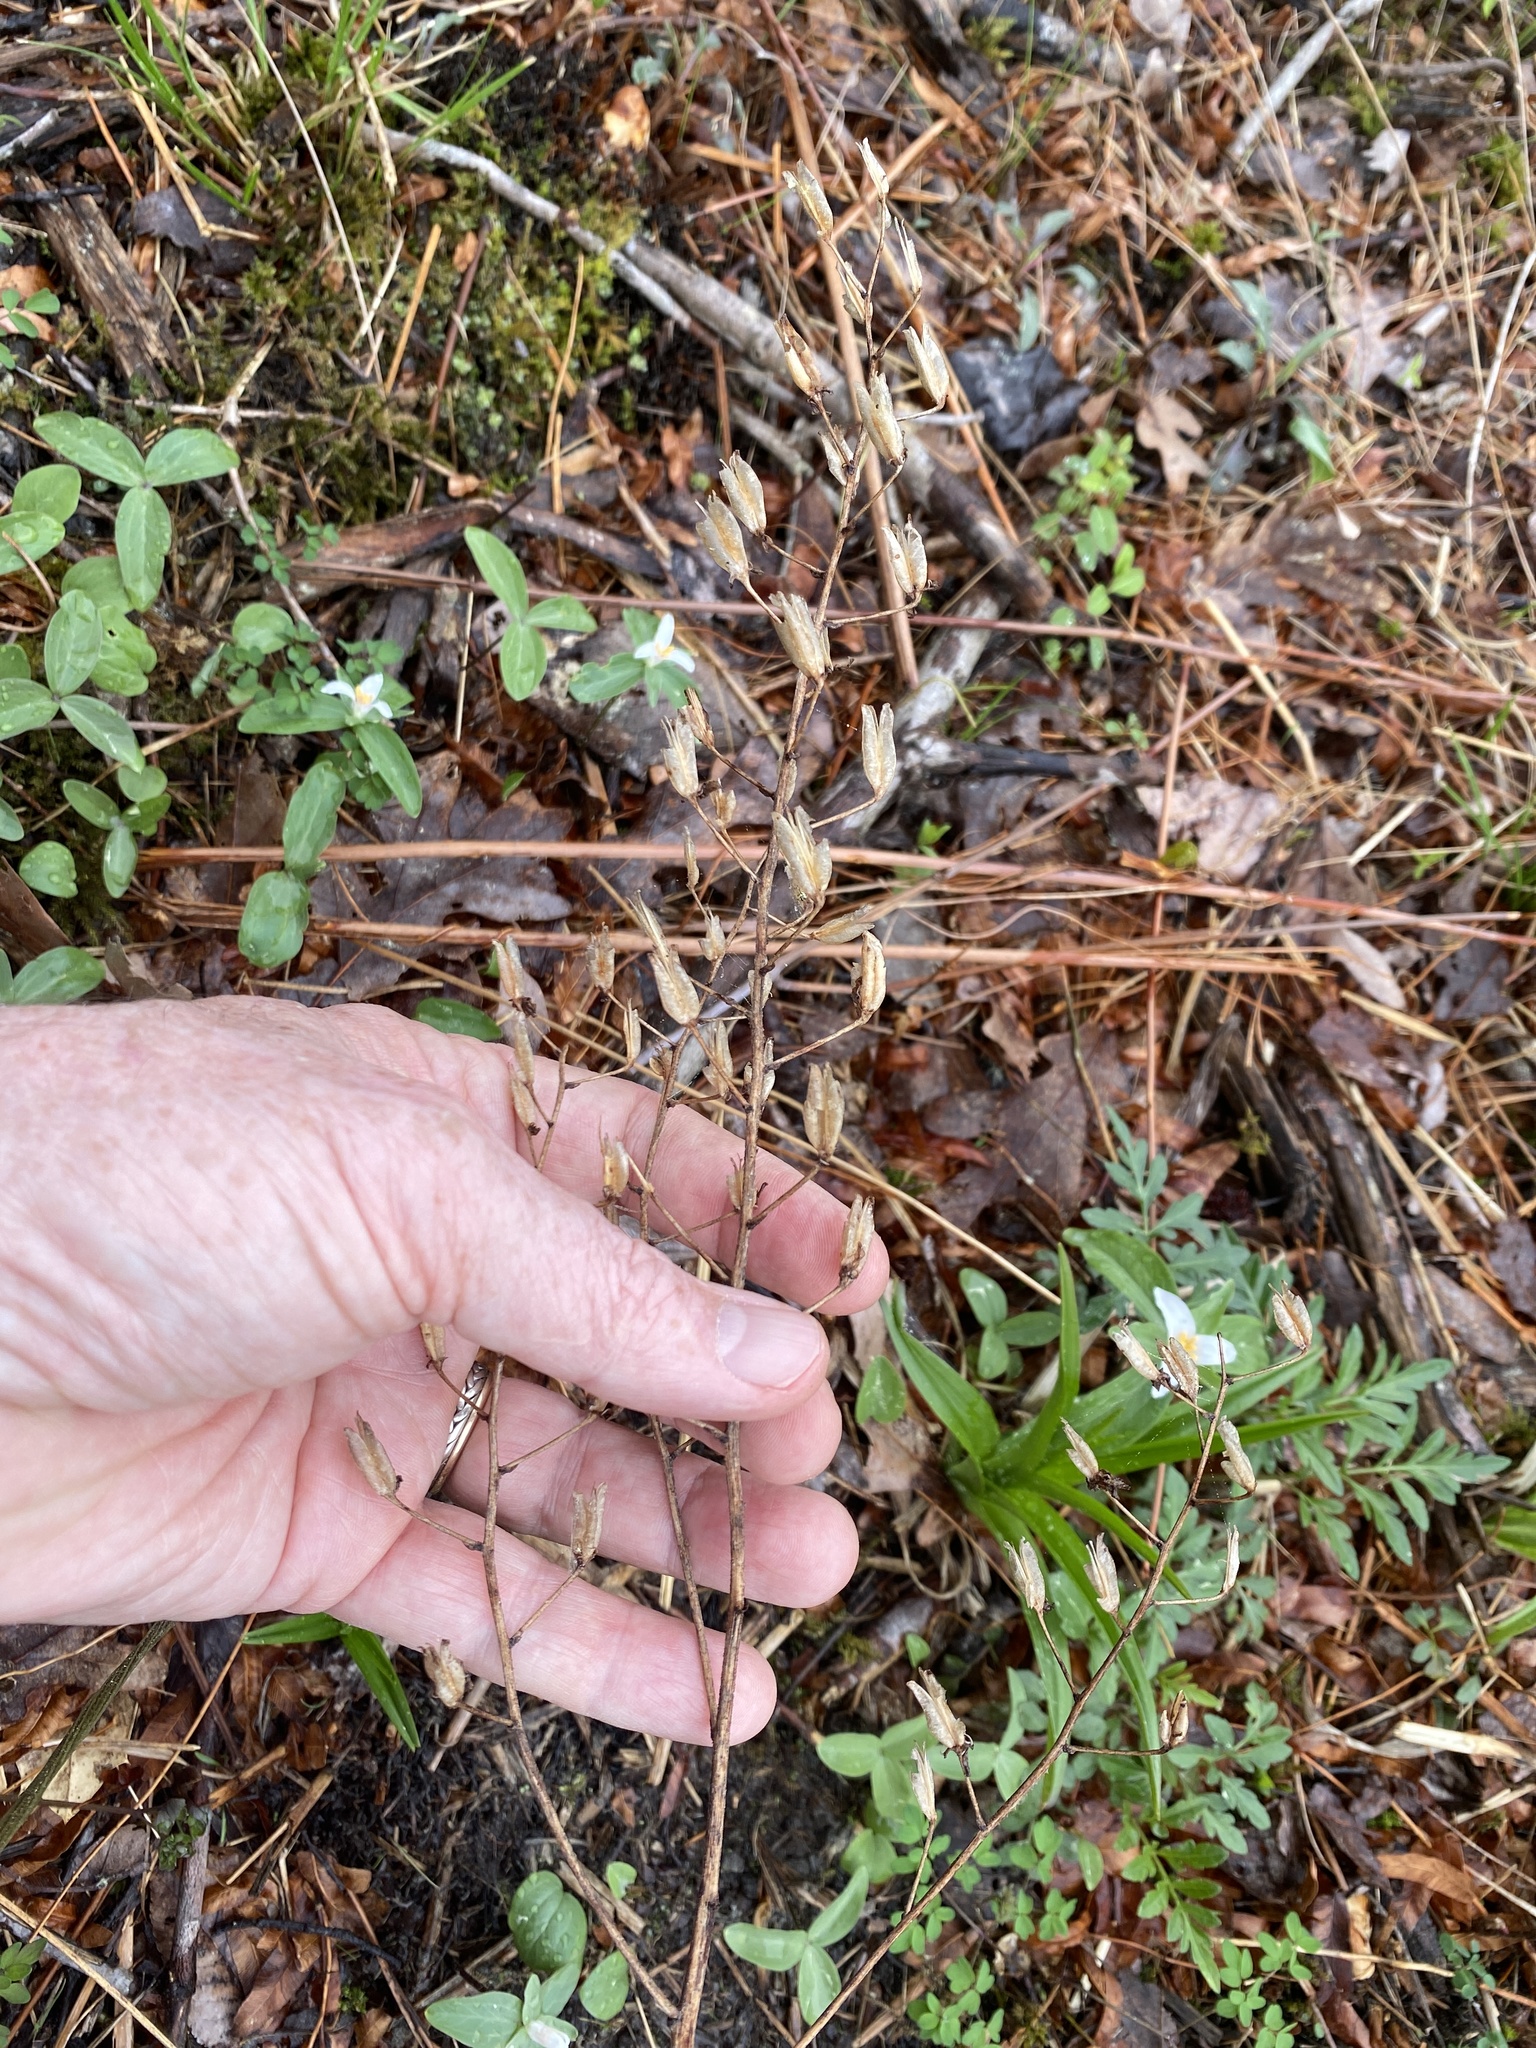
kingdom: Plantae
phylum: Tracheophyta
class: Liliopsida
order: Liliales
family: Melanthiaceae
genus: Melanthium
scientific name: Melanthium virginicum
